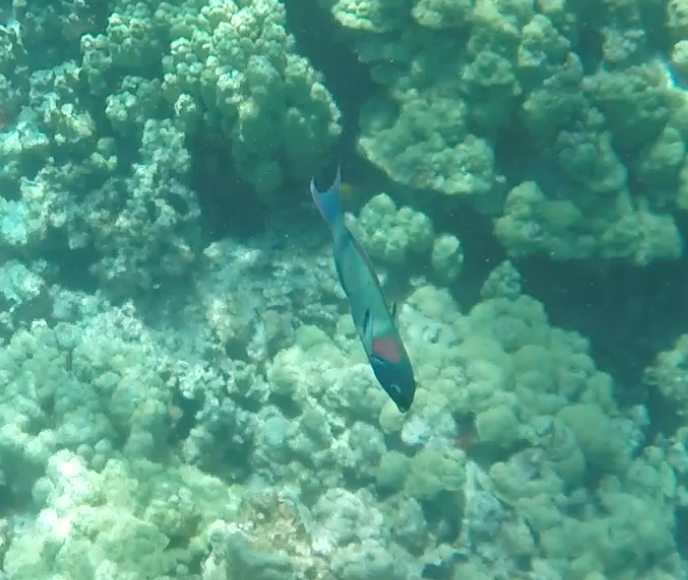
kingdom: Animalia
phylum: Chordata
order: Perciformes
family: Labridae
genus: Thalassoma
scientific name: Thalassoma duperrey
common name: Saddle wrasse
